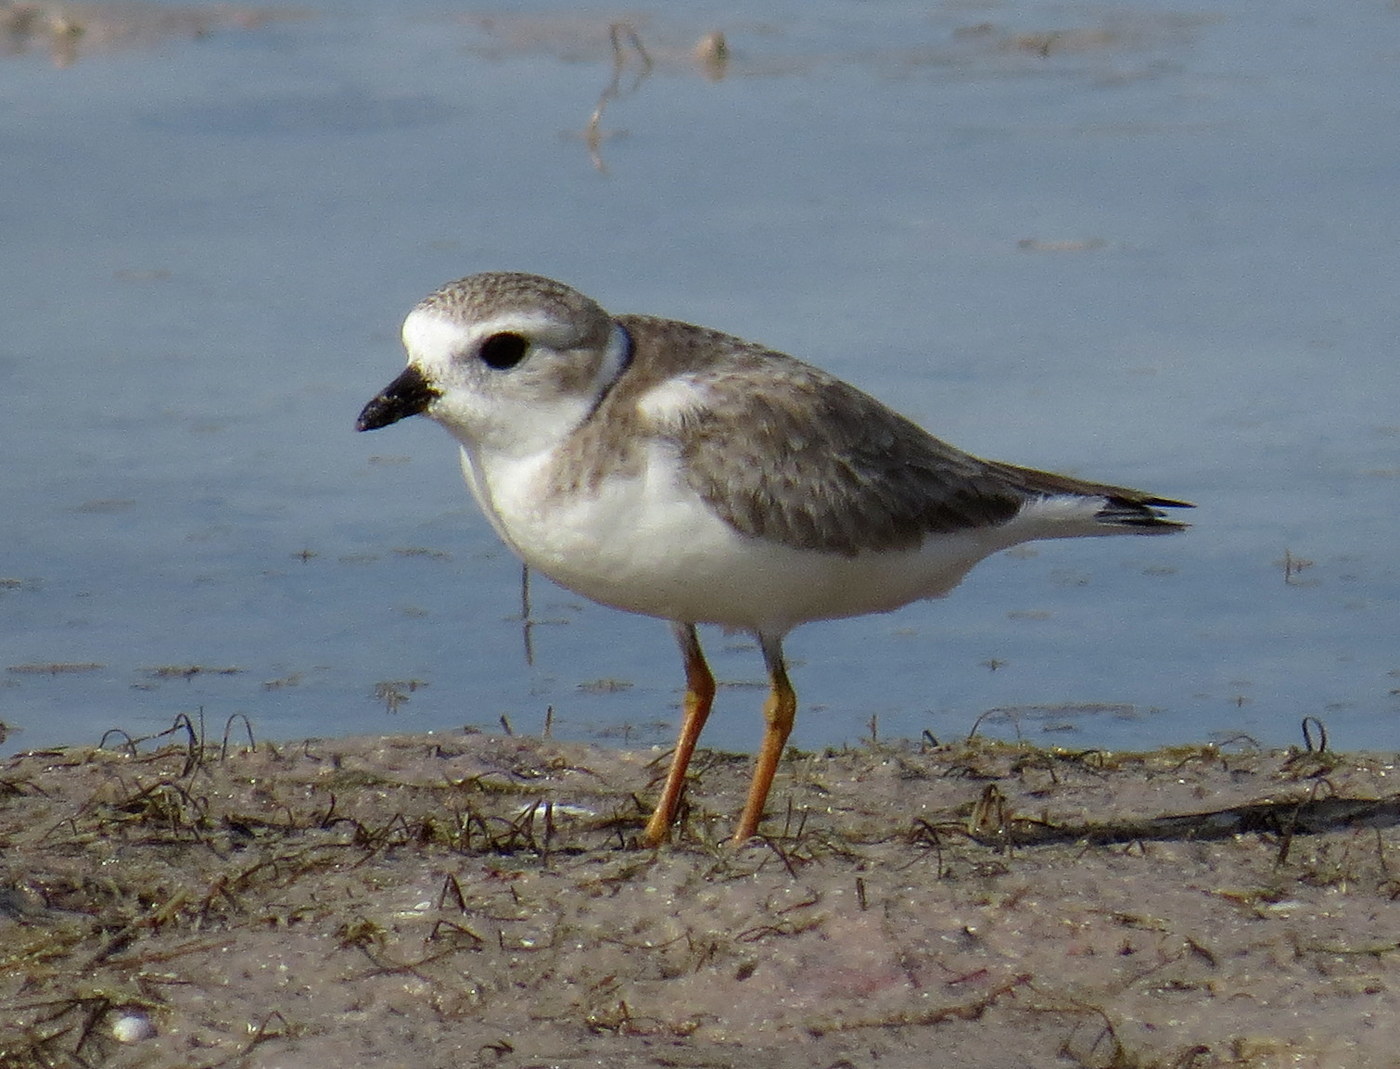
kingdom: Animalia
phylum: Chordata
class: Aves
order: Charadriiformes
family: Charadriidae
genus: Charadrius
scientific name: Charadrius melodus
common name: Piping plover
